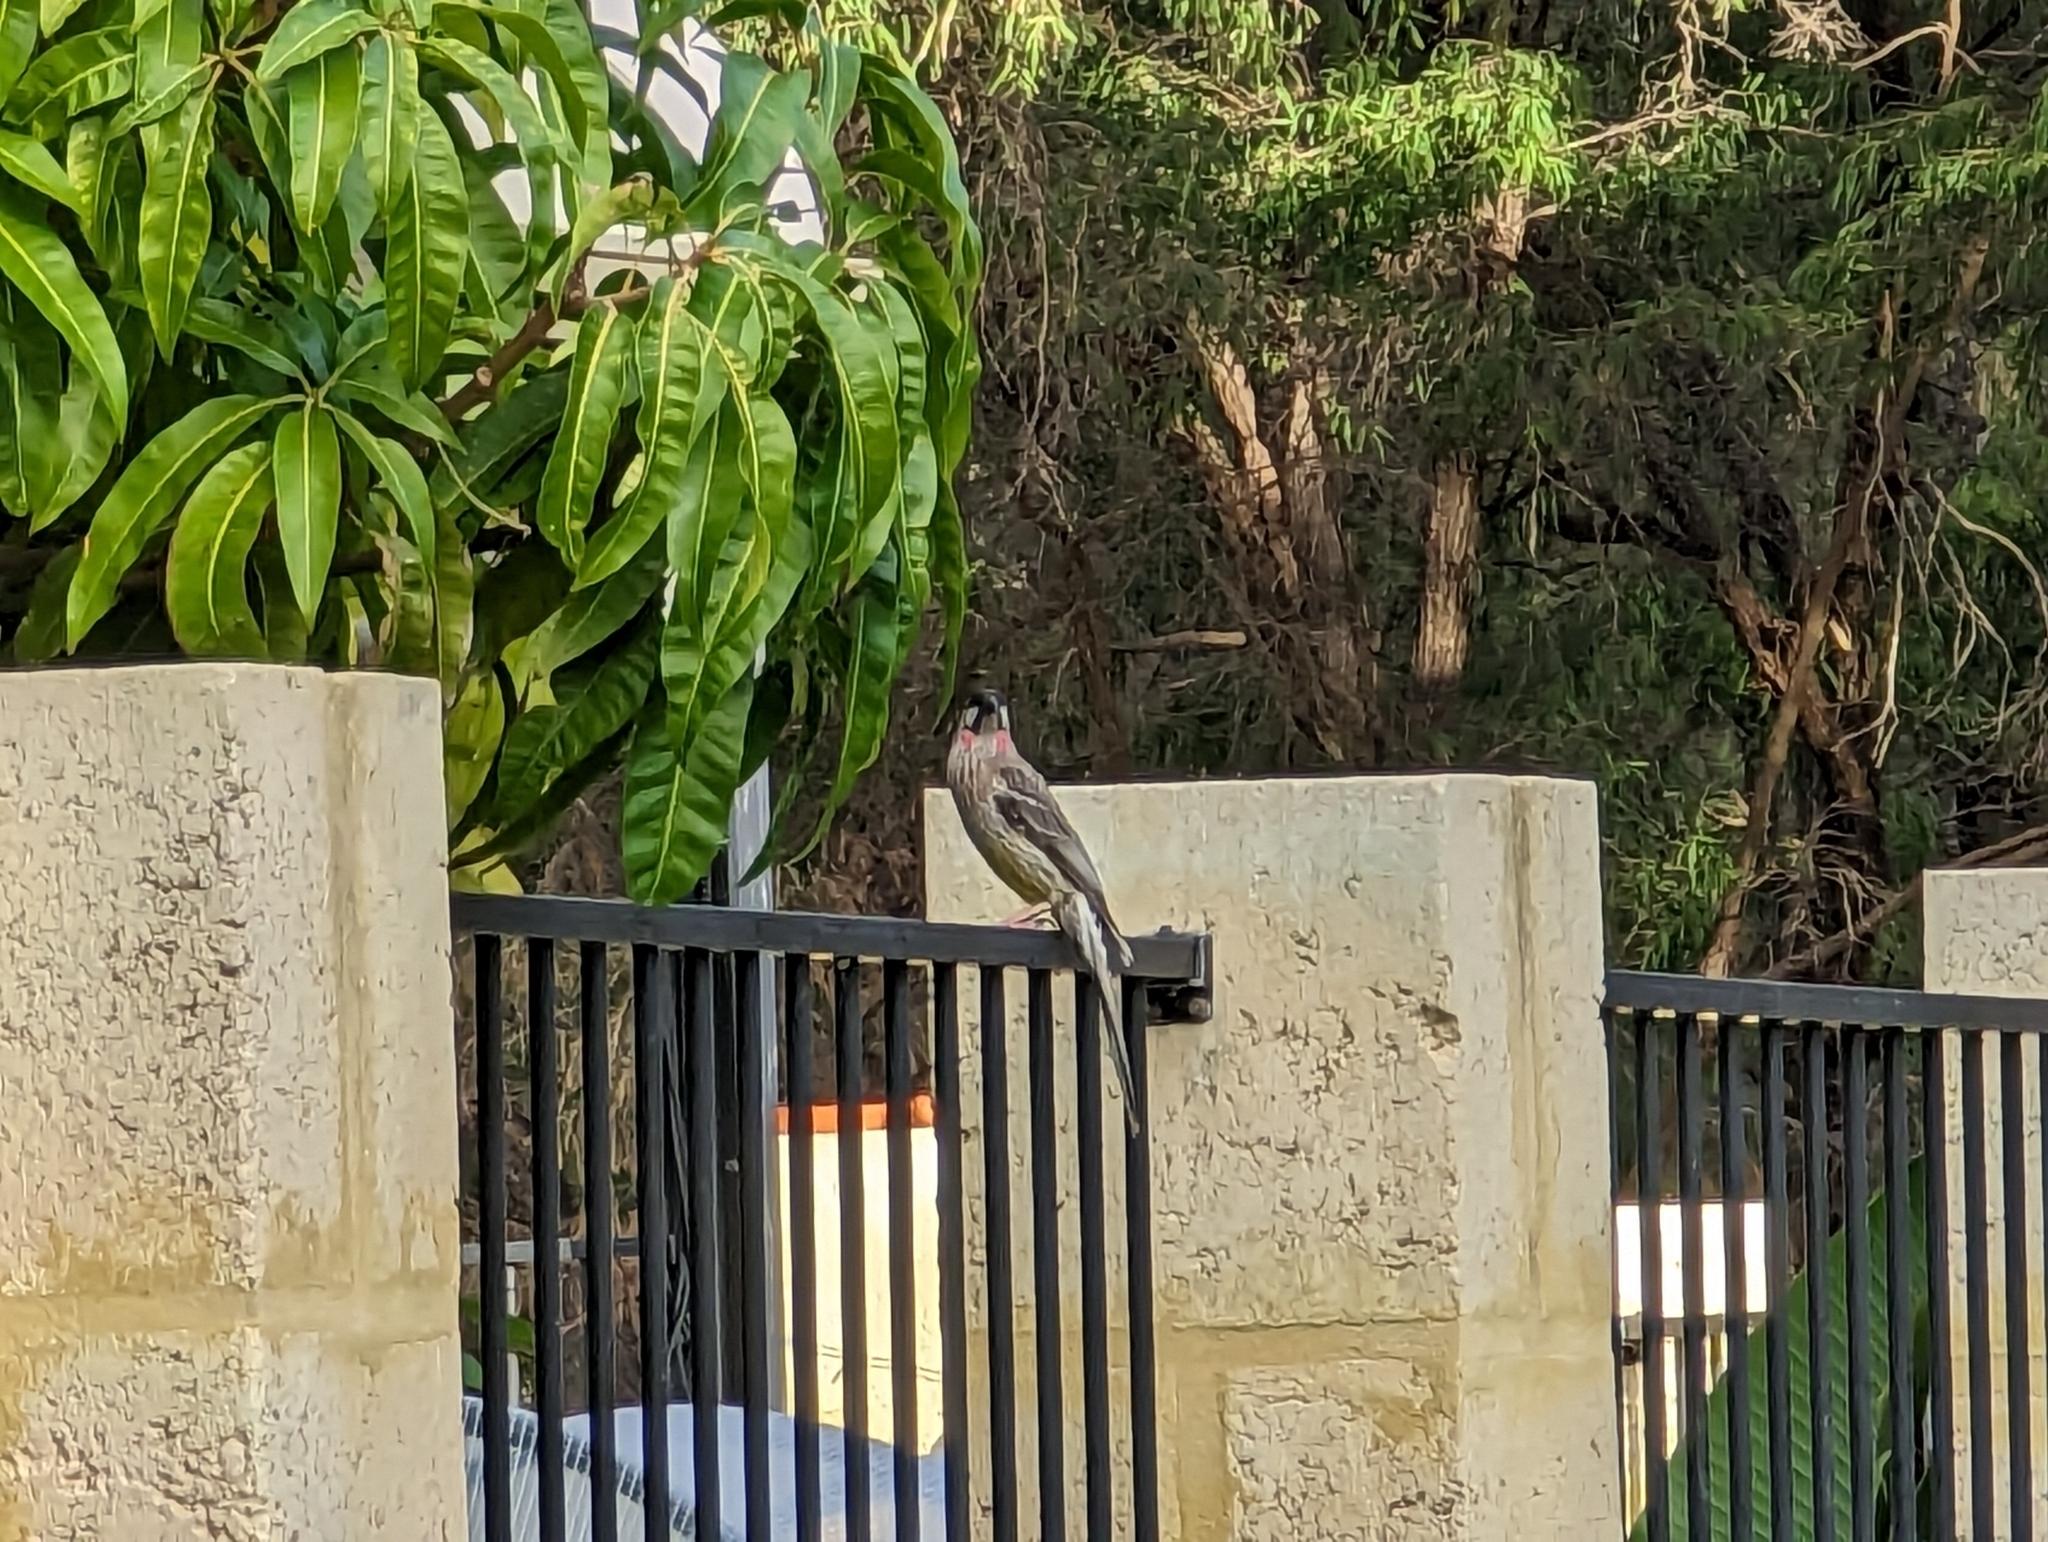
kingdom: Animalia
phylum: Chordata
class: Aves
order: Passeriformes
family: Meliphagidae
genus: Anthochaera
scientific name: Anthochaera carunculata
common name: Red wattlebird
